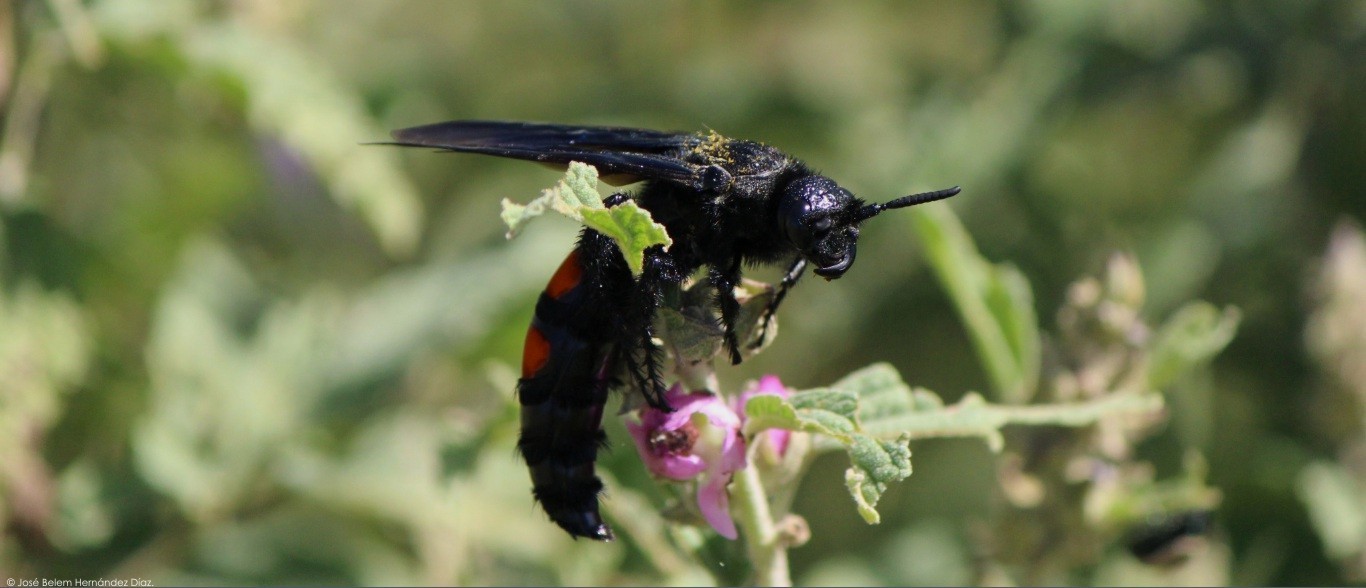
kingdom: Animalia
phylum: Arthropoda
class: Insecta
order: Hymenoptera
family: Scoliidae
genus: Pygodasis
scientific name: Pygodasis ephippium
